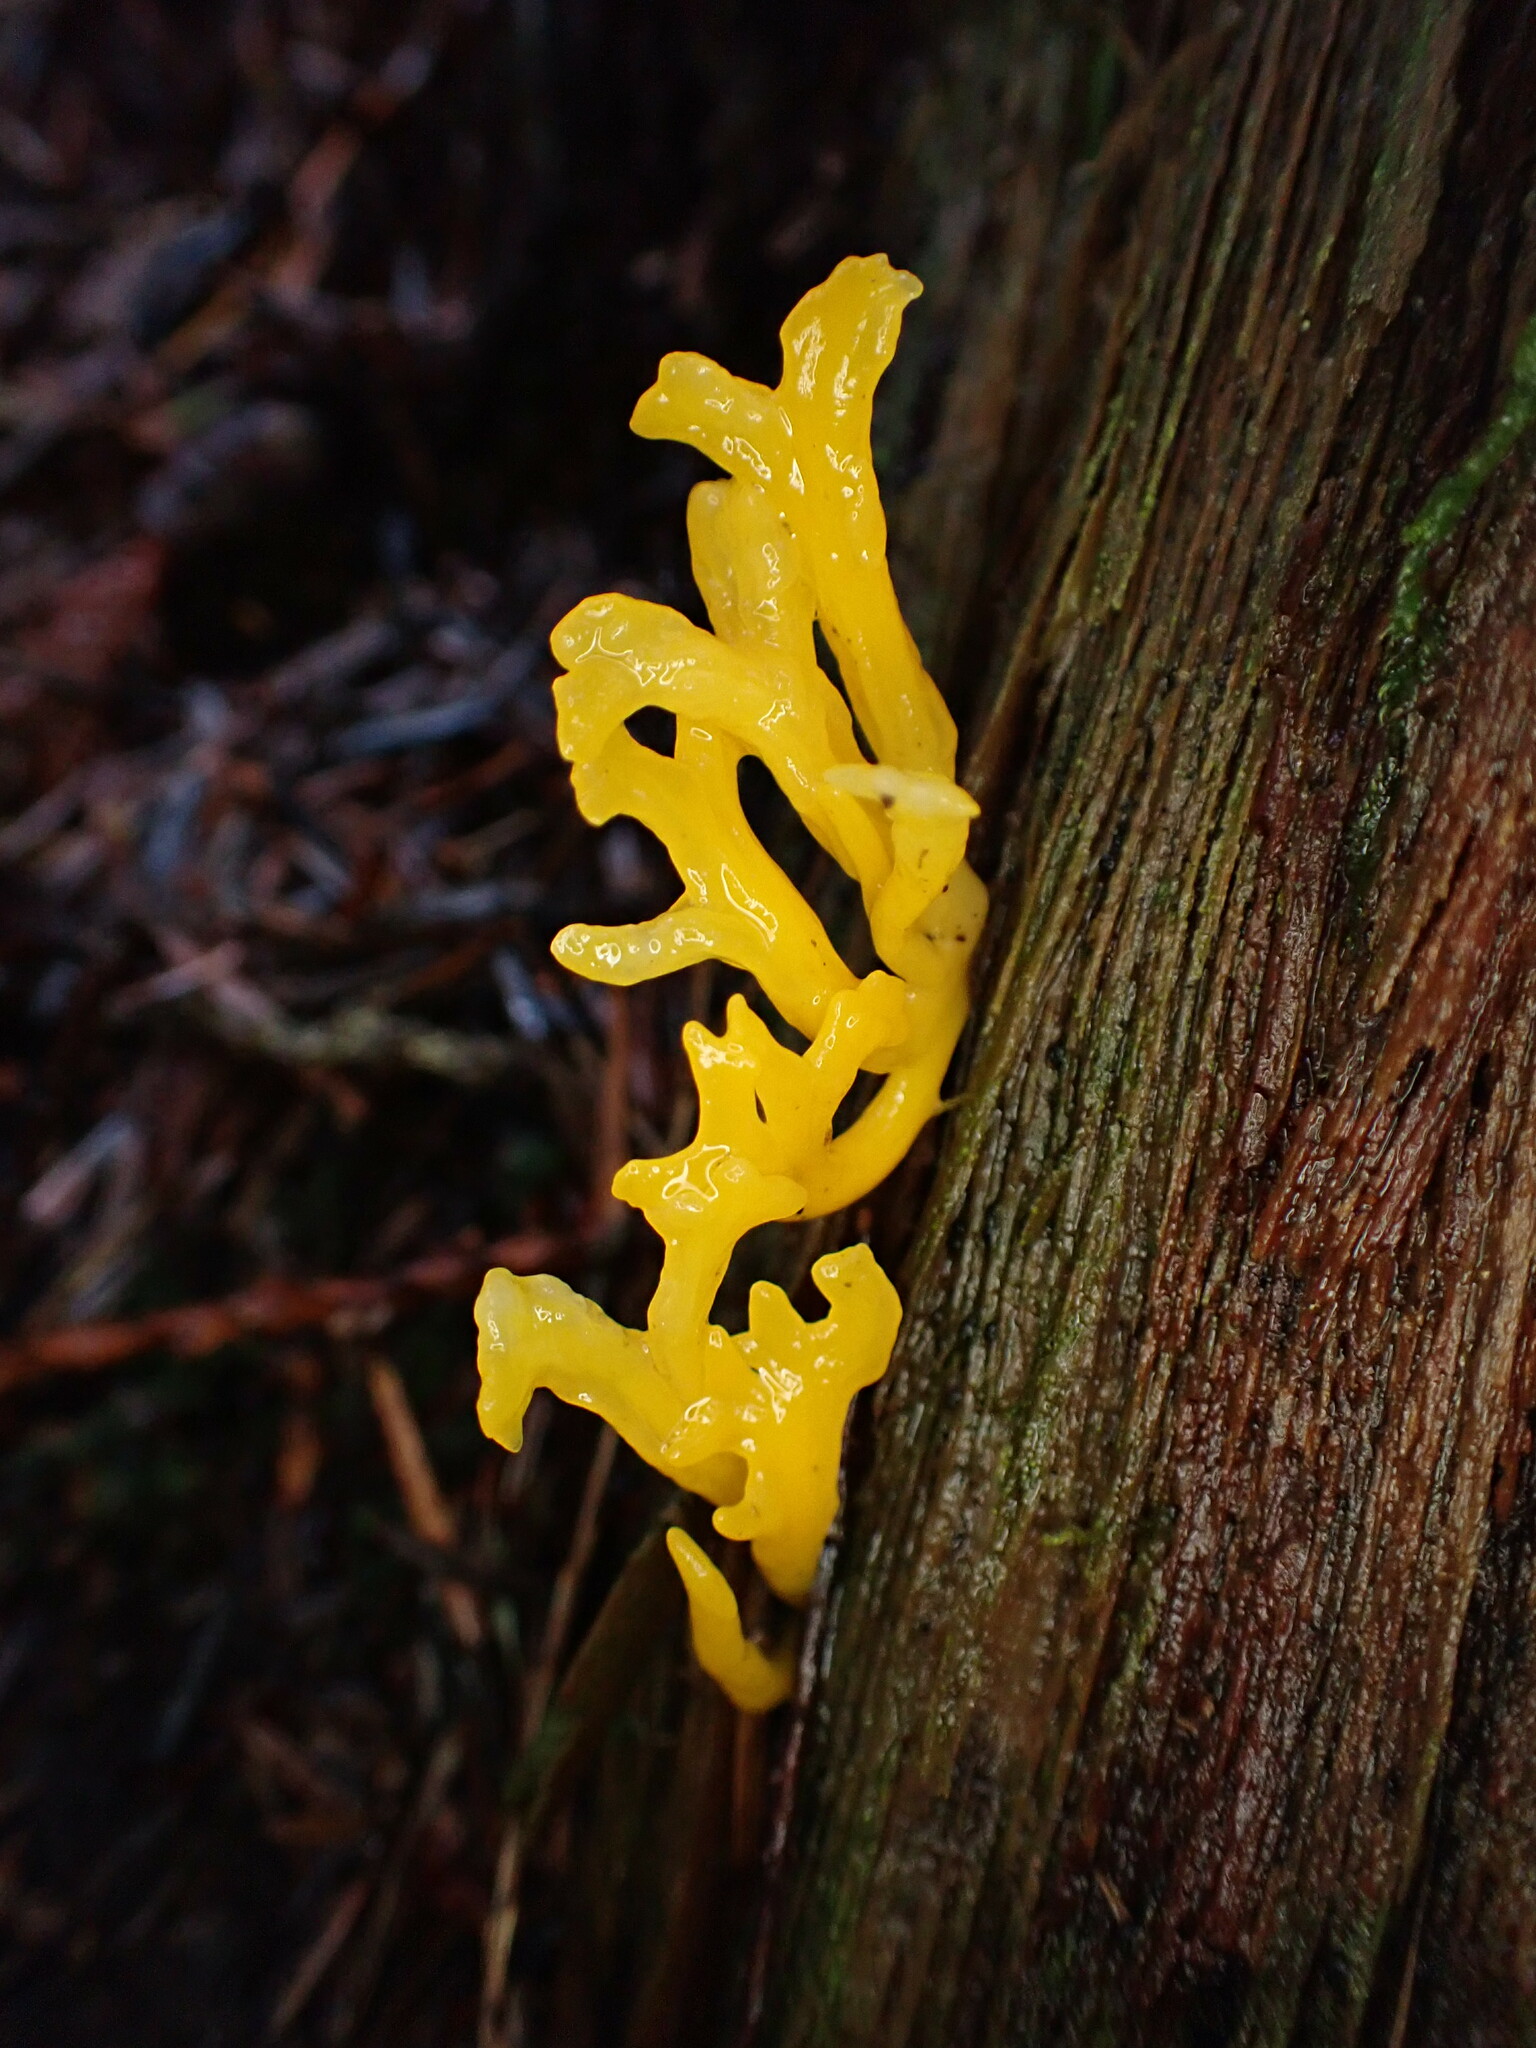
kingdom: Fungi
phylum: Basidiomycota
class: Dacrymycetes
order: Dacrymycetales
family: Dacrymycetaceae
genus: Calocera
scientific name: Calocera viscosa
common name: Yellow stagshorn
